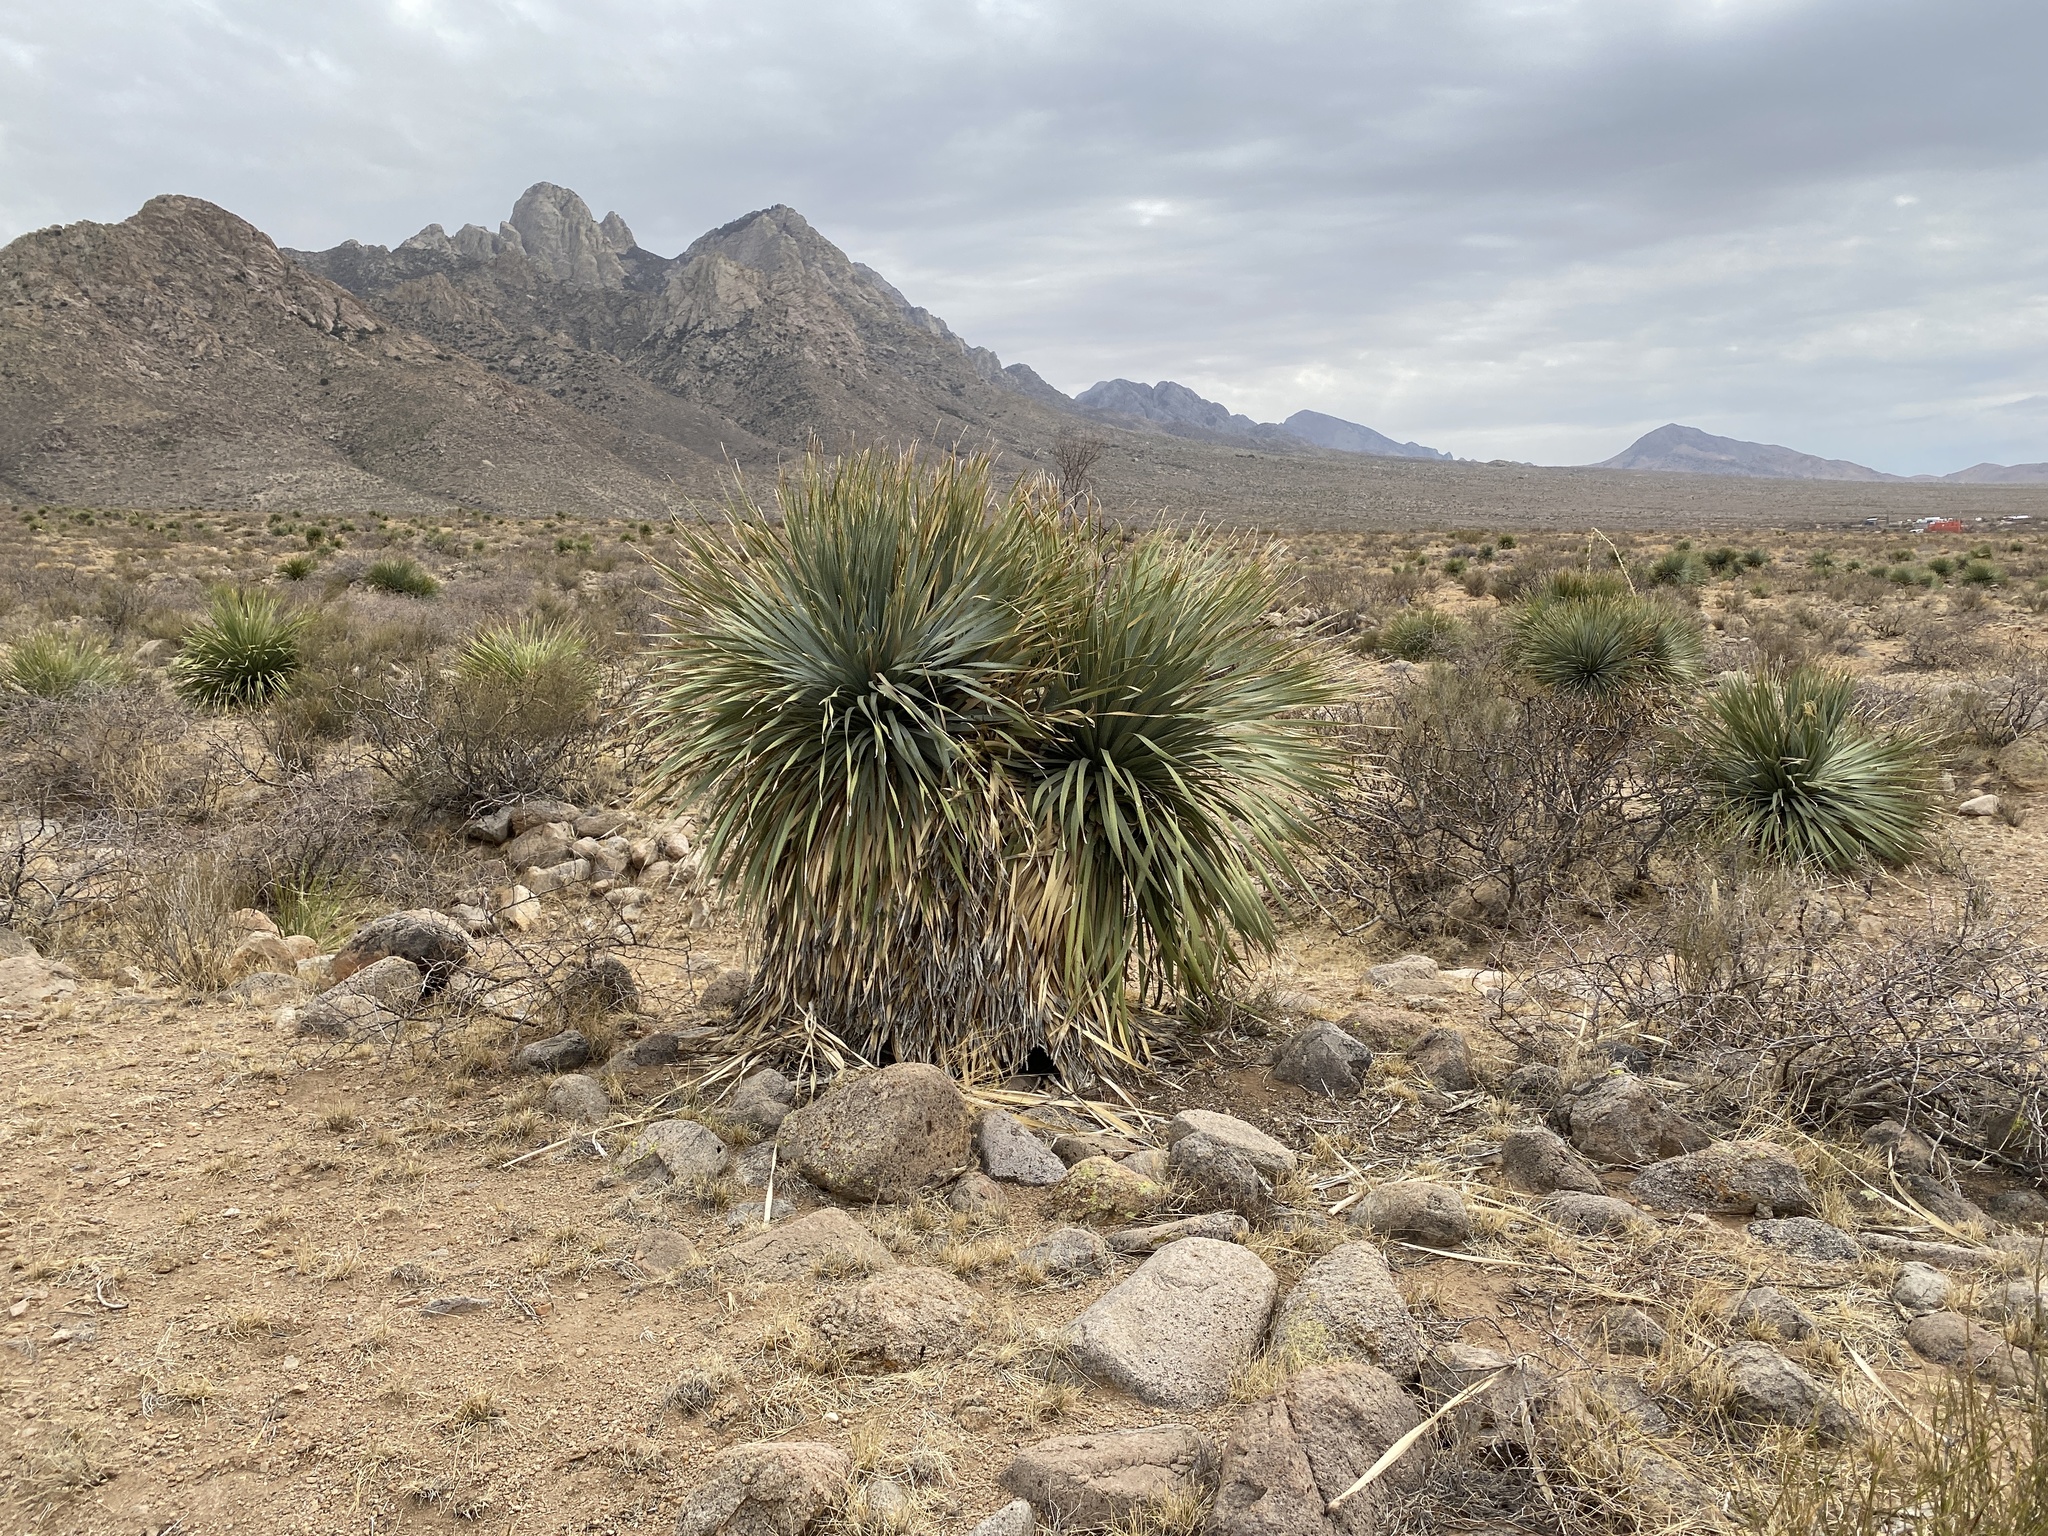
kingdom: Plantae
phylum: Tracheophyta
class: Liliopsida
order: Asparagales
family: Asparagaceae
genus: Dasylirion
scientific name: Dasylirion wheeleri
